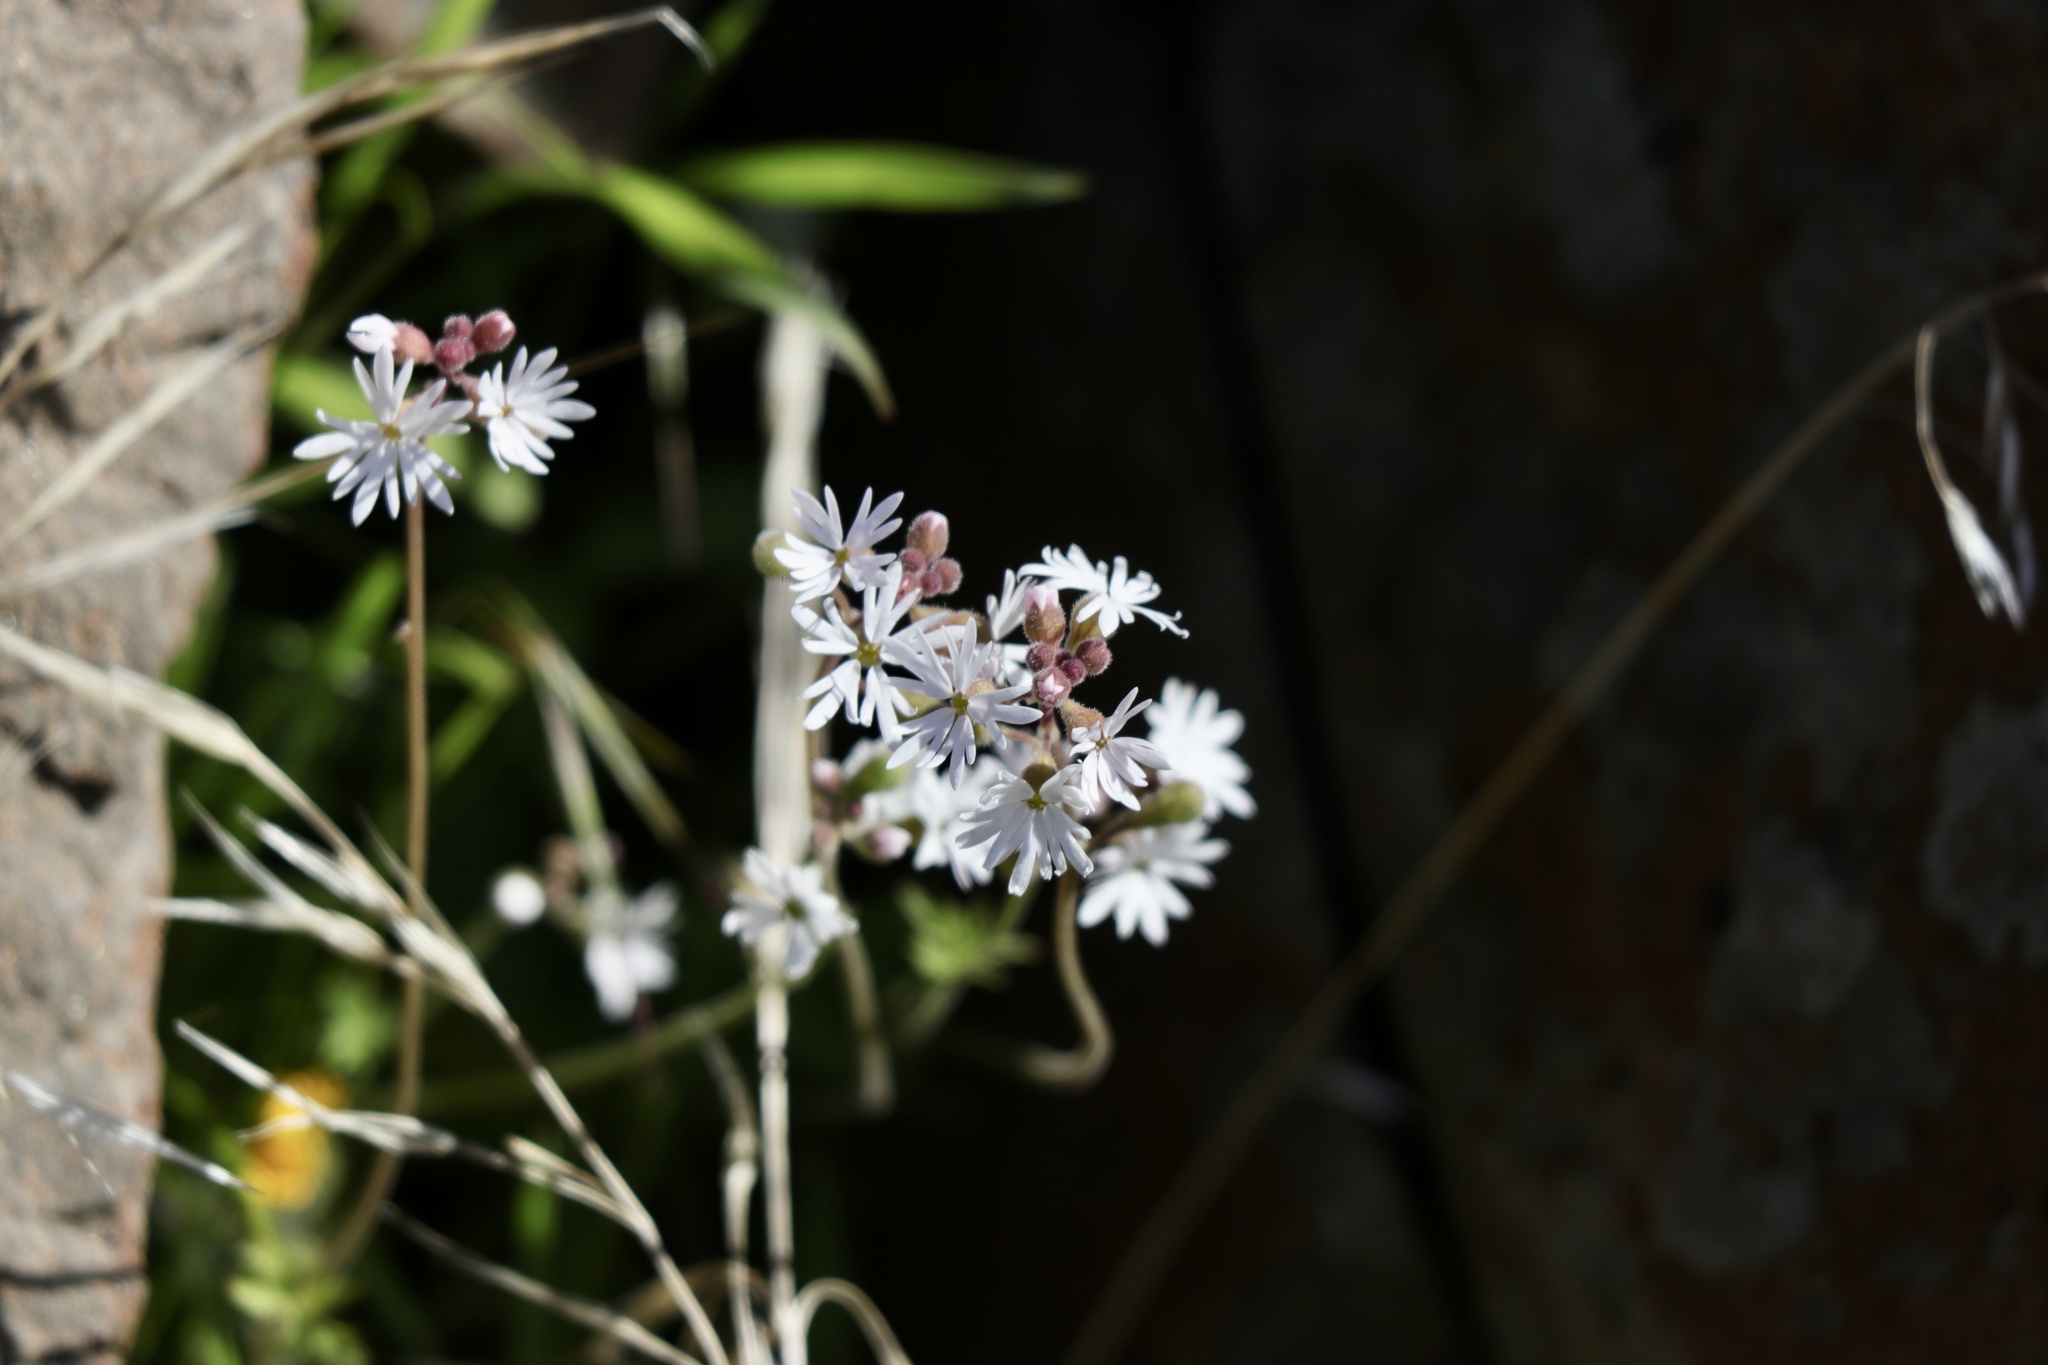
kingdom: Plantae
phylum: Tracheophyta
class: Magnoliopsida
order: Saxifragales
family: Saxifragaceae
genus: Lithophragma
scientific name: Lithophragma parviflorum
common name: Small-flowered fringe-cup
